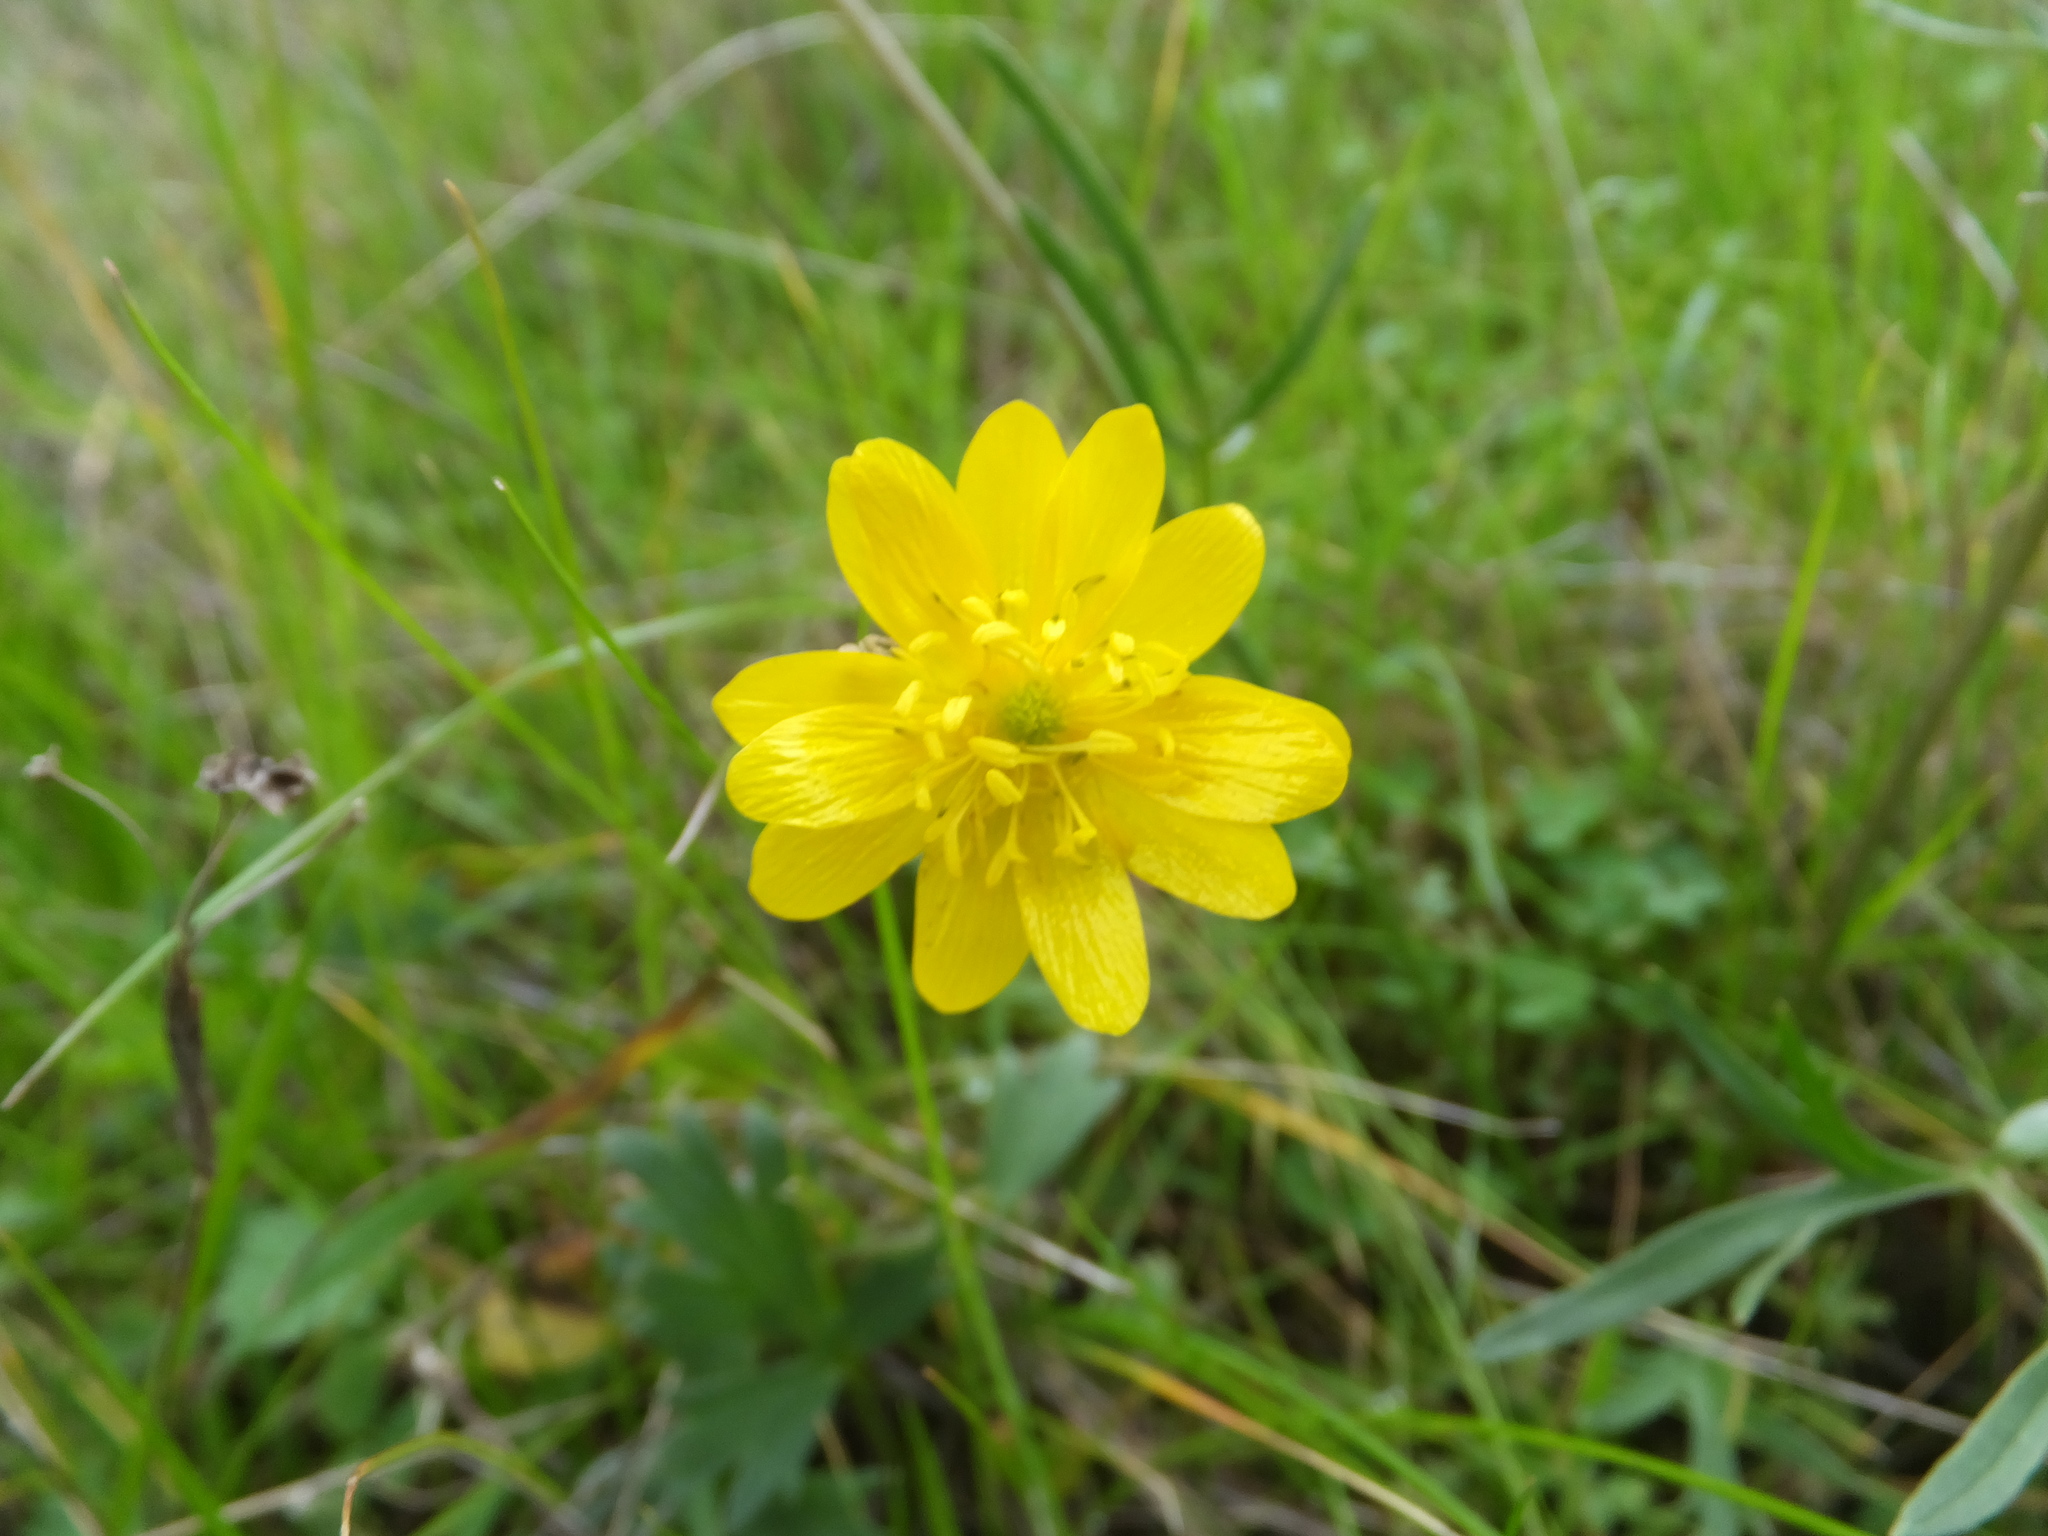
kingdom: Plantae
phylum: Tracheophyta
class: Magnoliopsida
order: Ranunculales
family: Ranunculaceae
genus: Ranunculus
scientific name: Ranunculus californicus
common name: California buttercup
